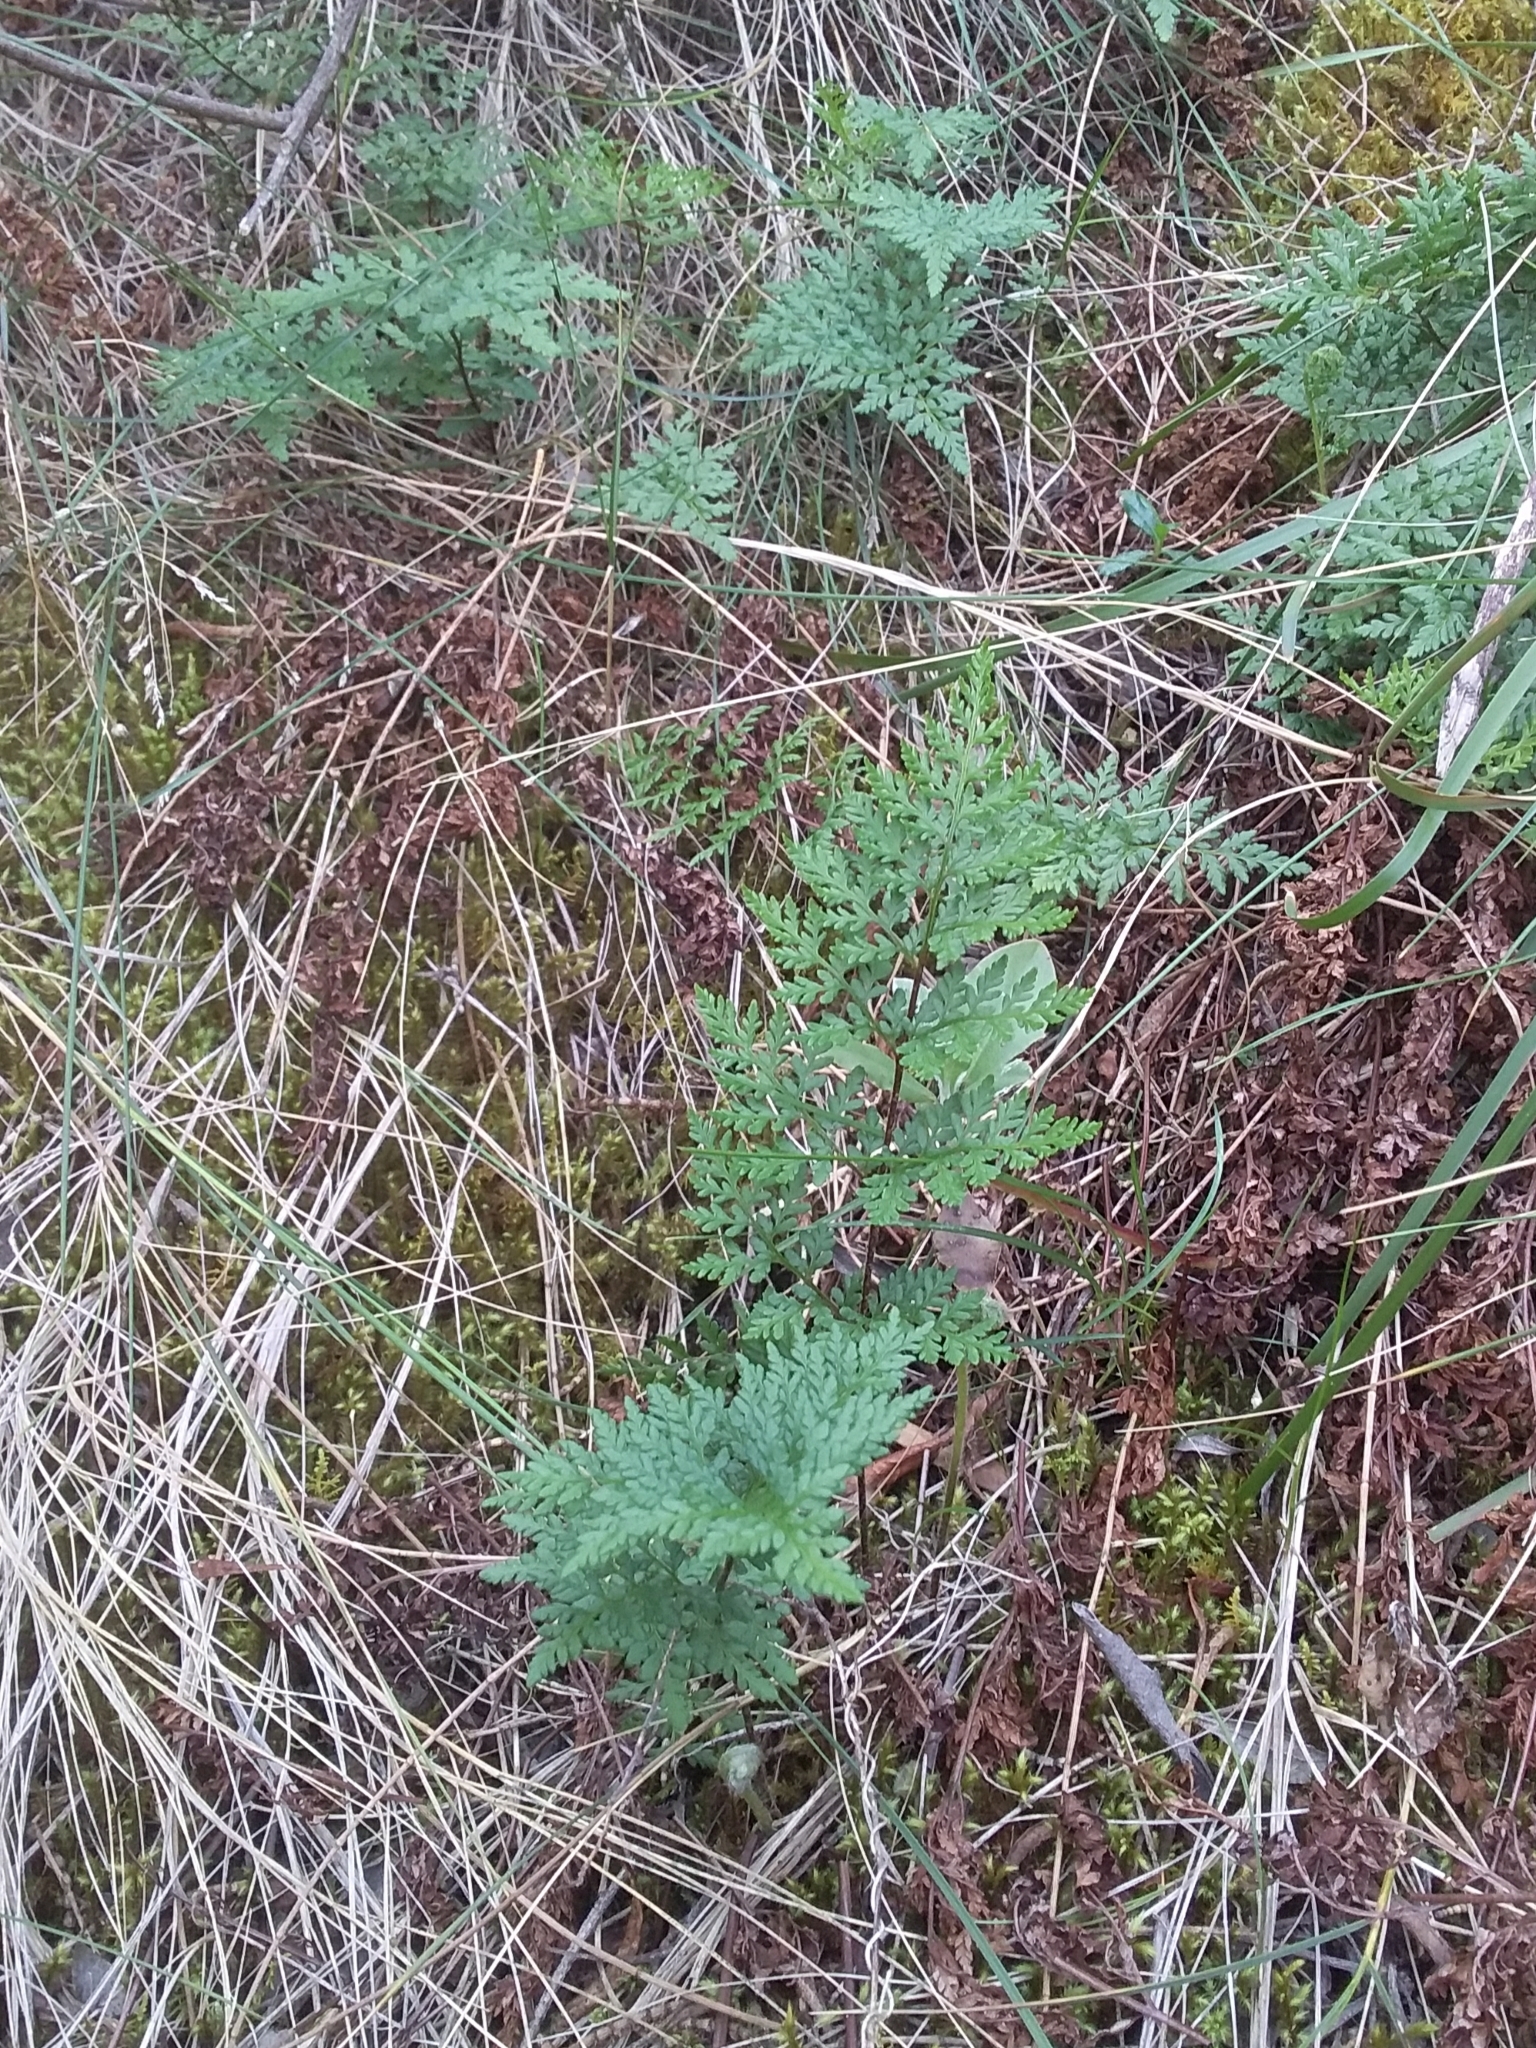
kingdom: Plantae
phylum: Tracheophyta
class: Polypodiopsida
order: Polypodiales
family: Pteridaceae
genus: Cheilanthes
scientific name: Cheilanthes austrotenuifolia
